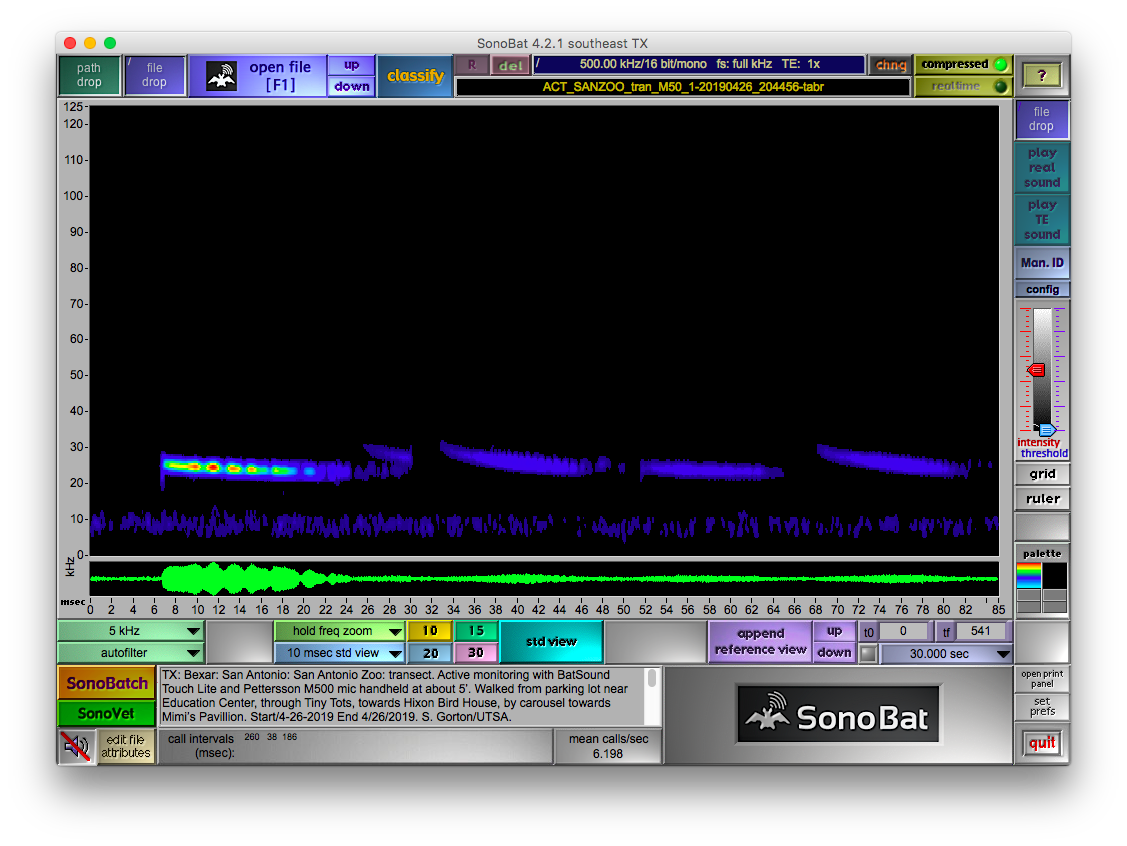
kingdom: Animalia
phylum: Chordata
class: Mammalia
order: Chiroptera
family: Molossidae
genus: Tadarida
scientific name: Tadarida brasiliensis
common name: Mexican free-tailed bat
